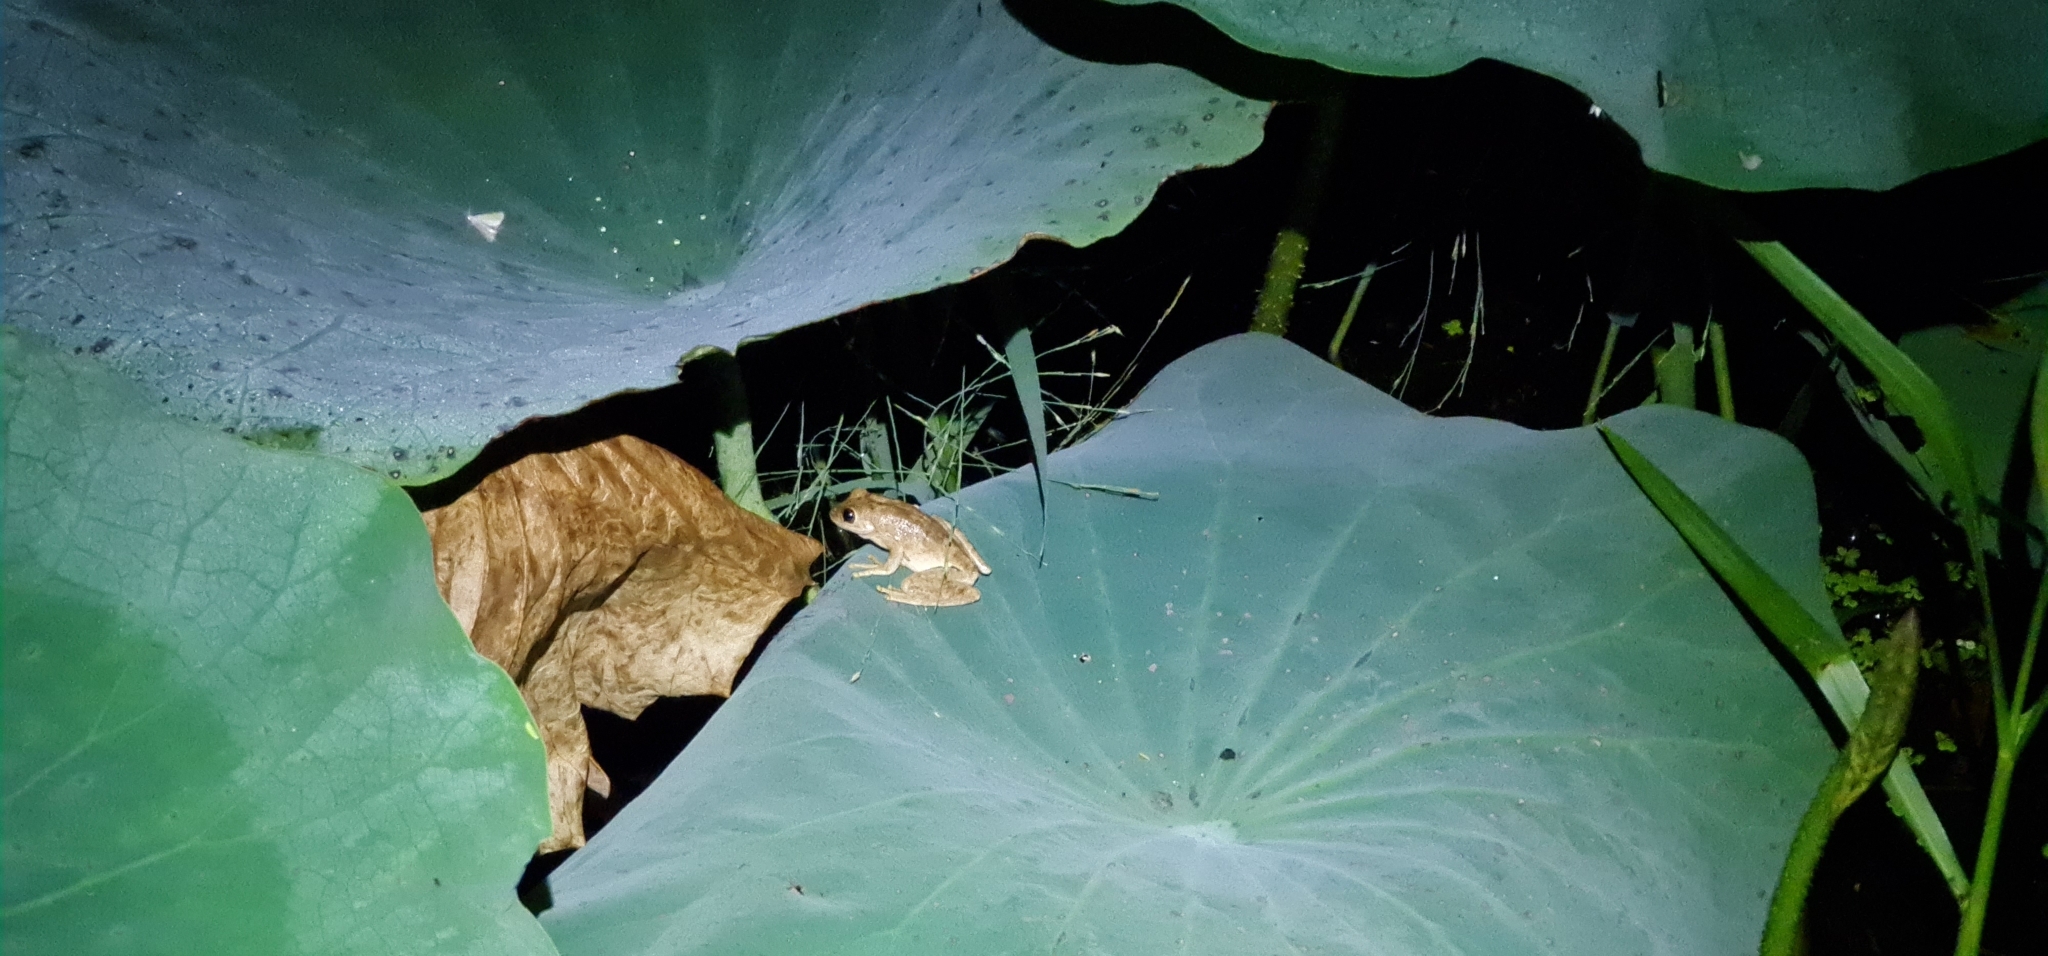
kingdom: Animalia
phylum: Chordata
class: Amphibia
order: Anura
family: Pelodryadidae
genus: Litoria
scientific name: Litoria
